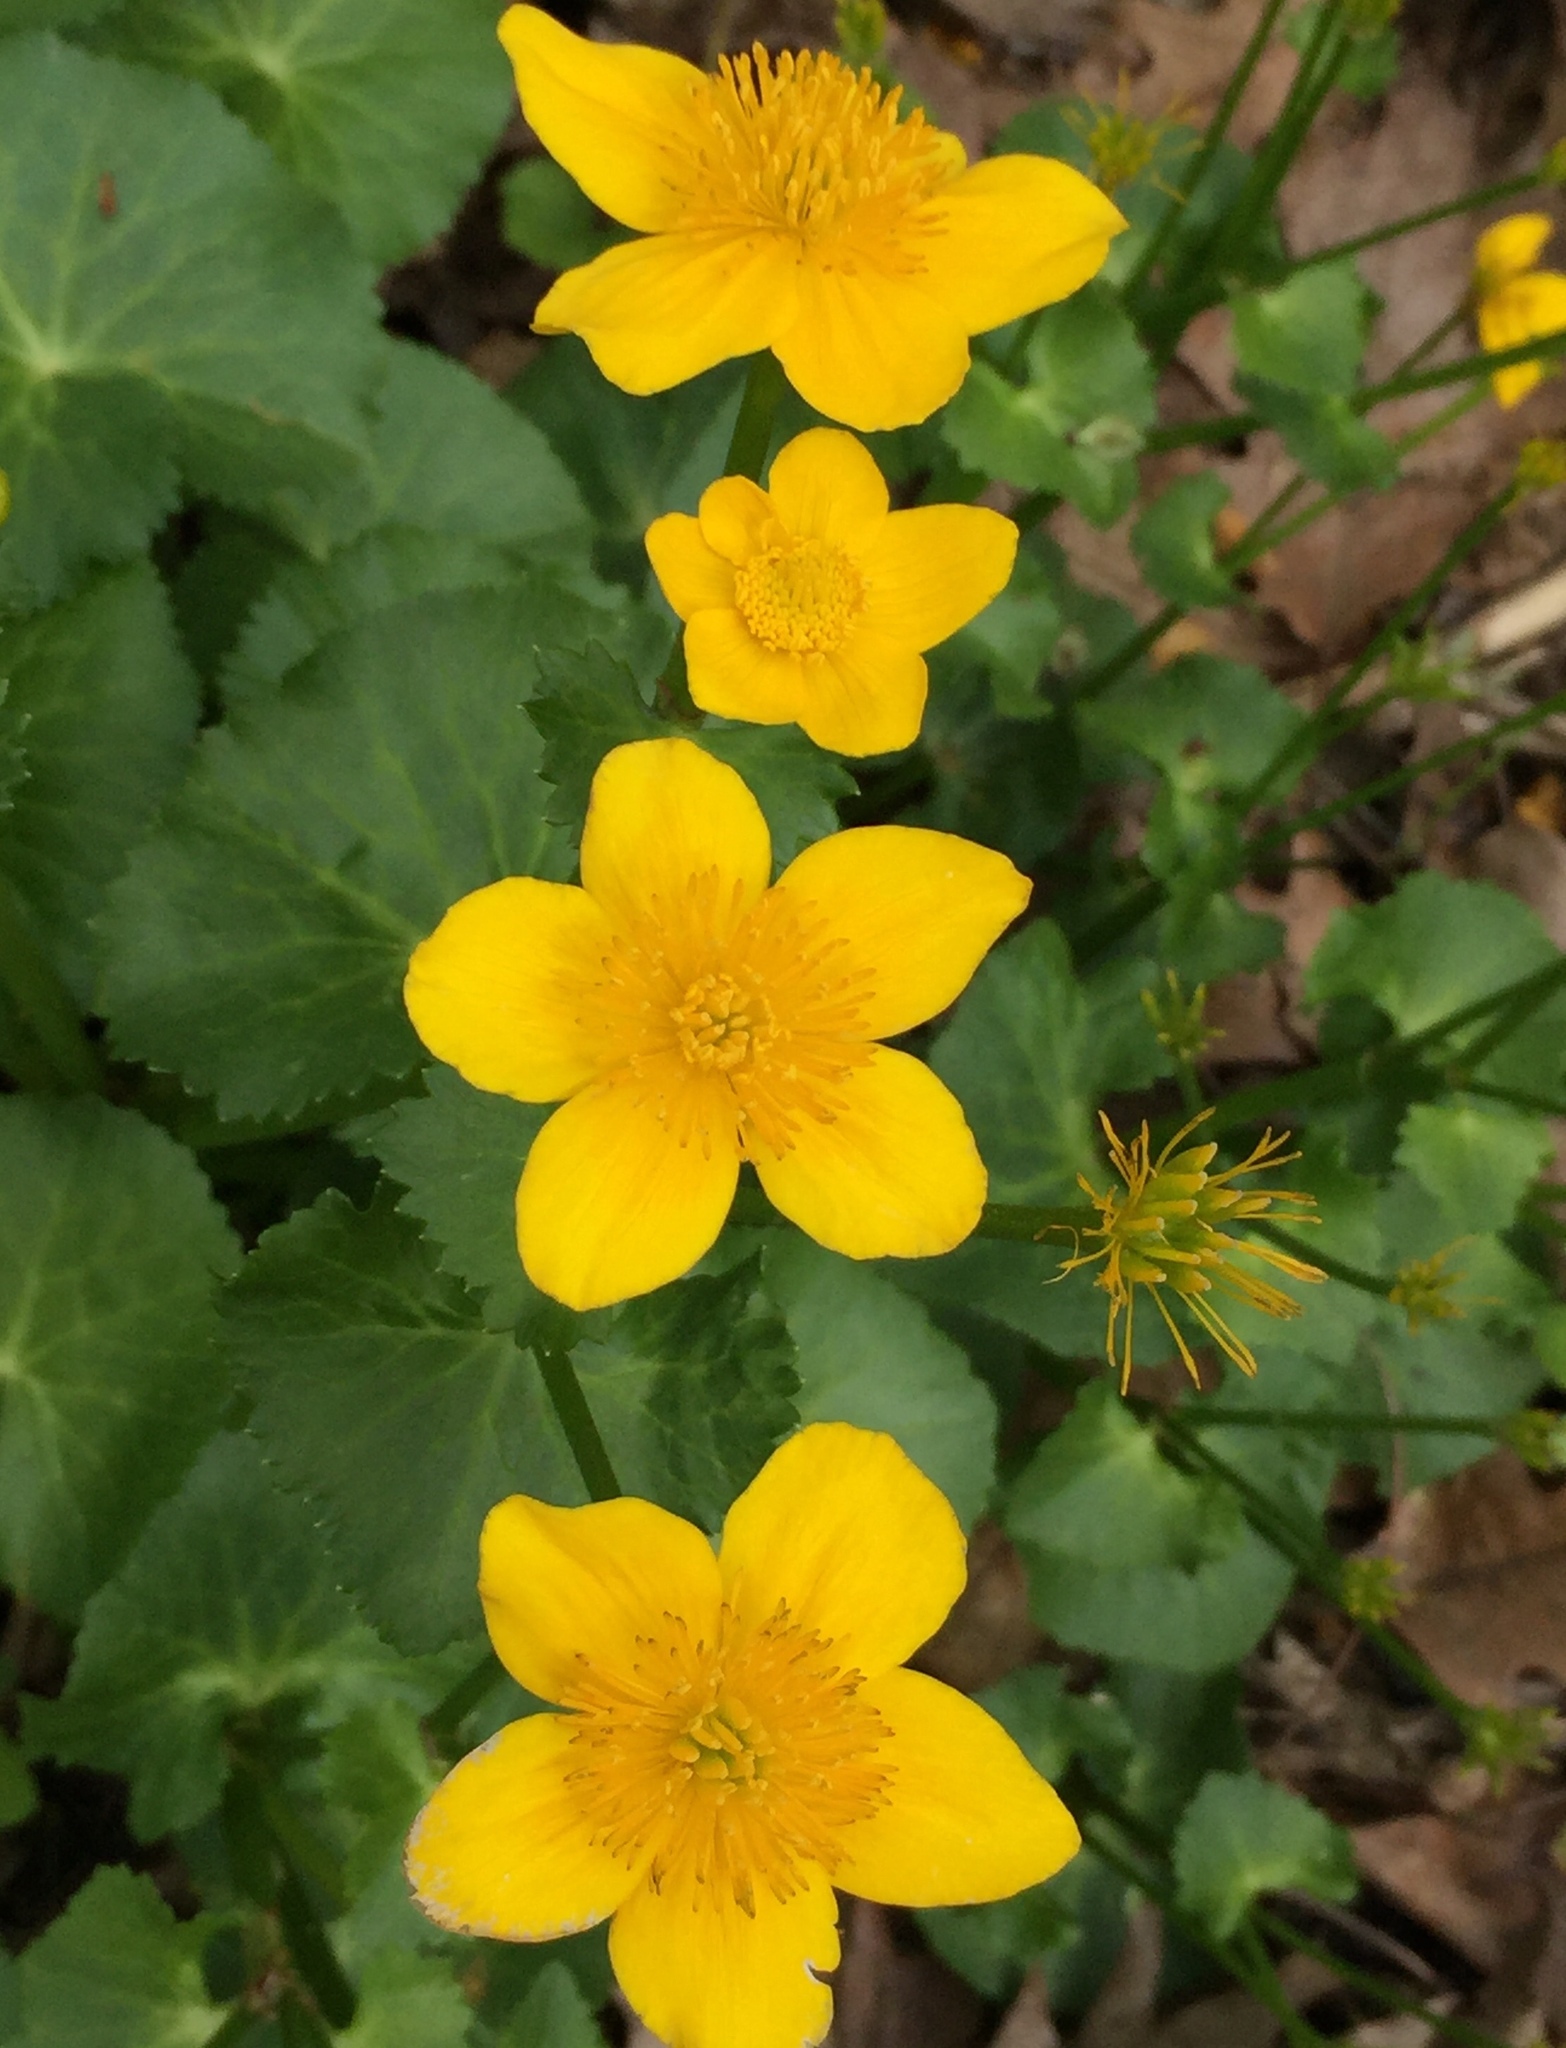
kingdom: Plantae
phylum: Tracheophyta
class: Magnoliopsida
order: Ranunculales
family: Ranunculaceae
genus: Caltha
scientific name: Caltha palustris
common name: Marsh marigold
